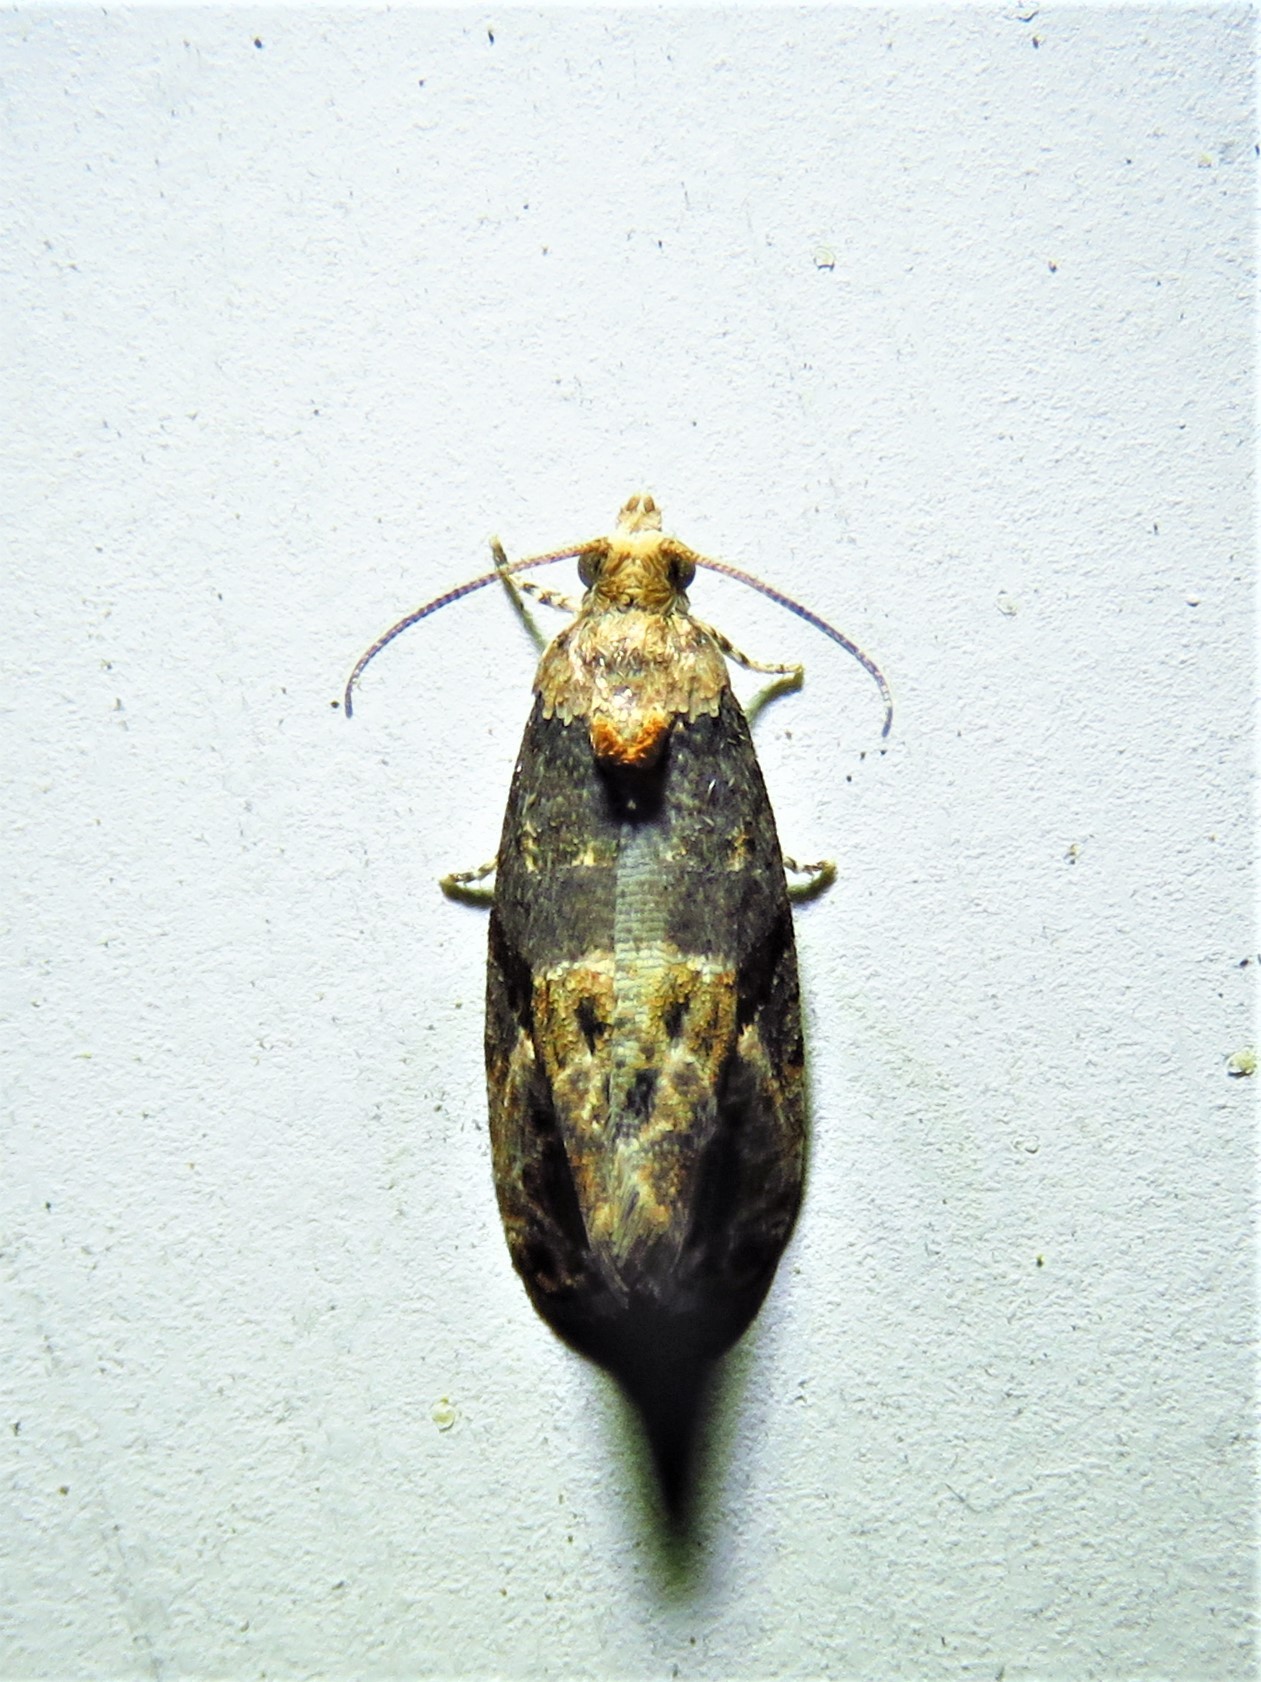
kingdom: Animalia
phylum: Arthropoda
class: Insecta
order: Lepidoptera
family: Tortricidae
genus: Paralobesia
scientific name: Paralobesia viteana
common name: Grape berry moth
